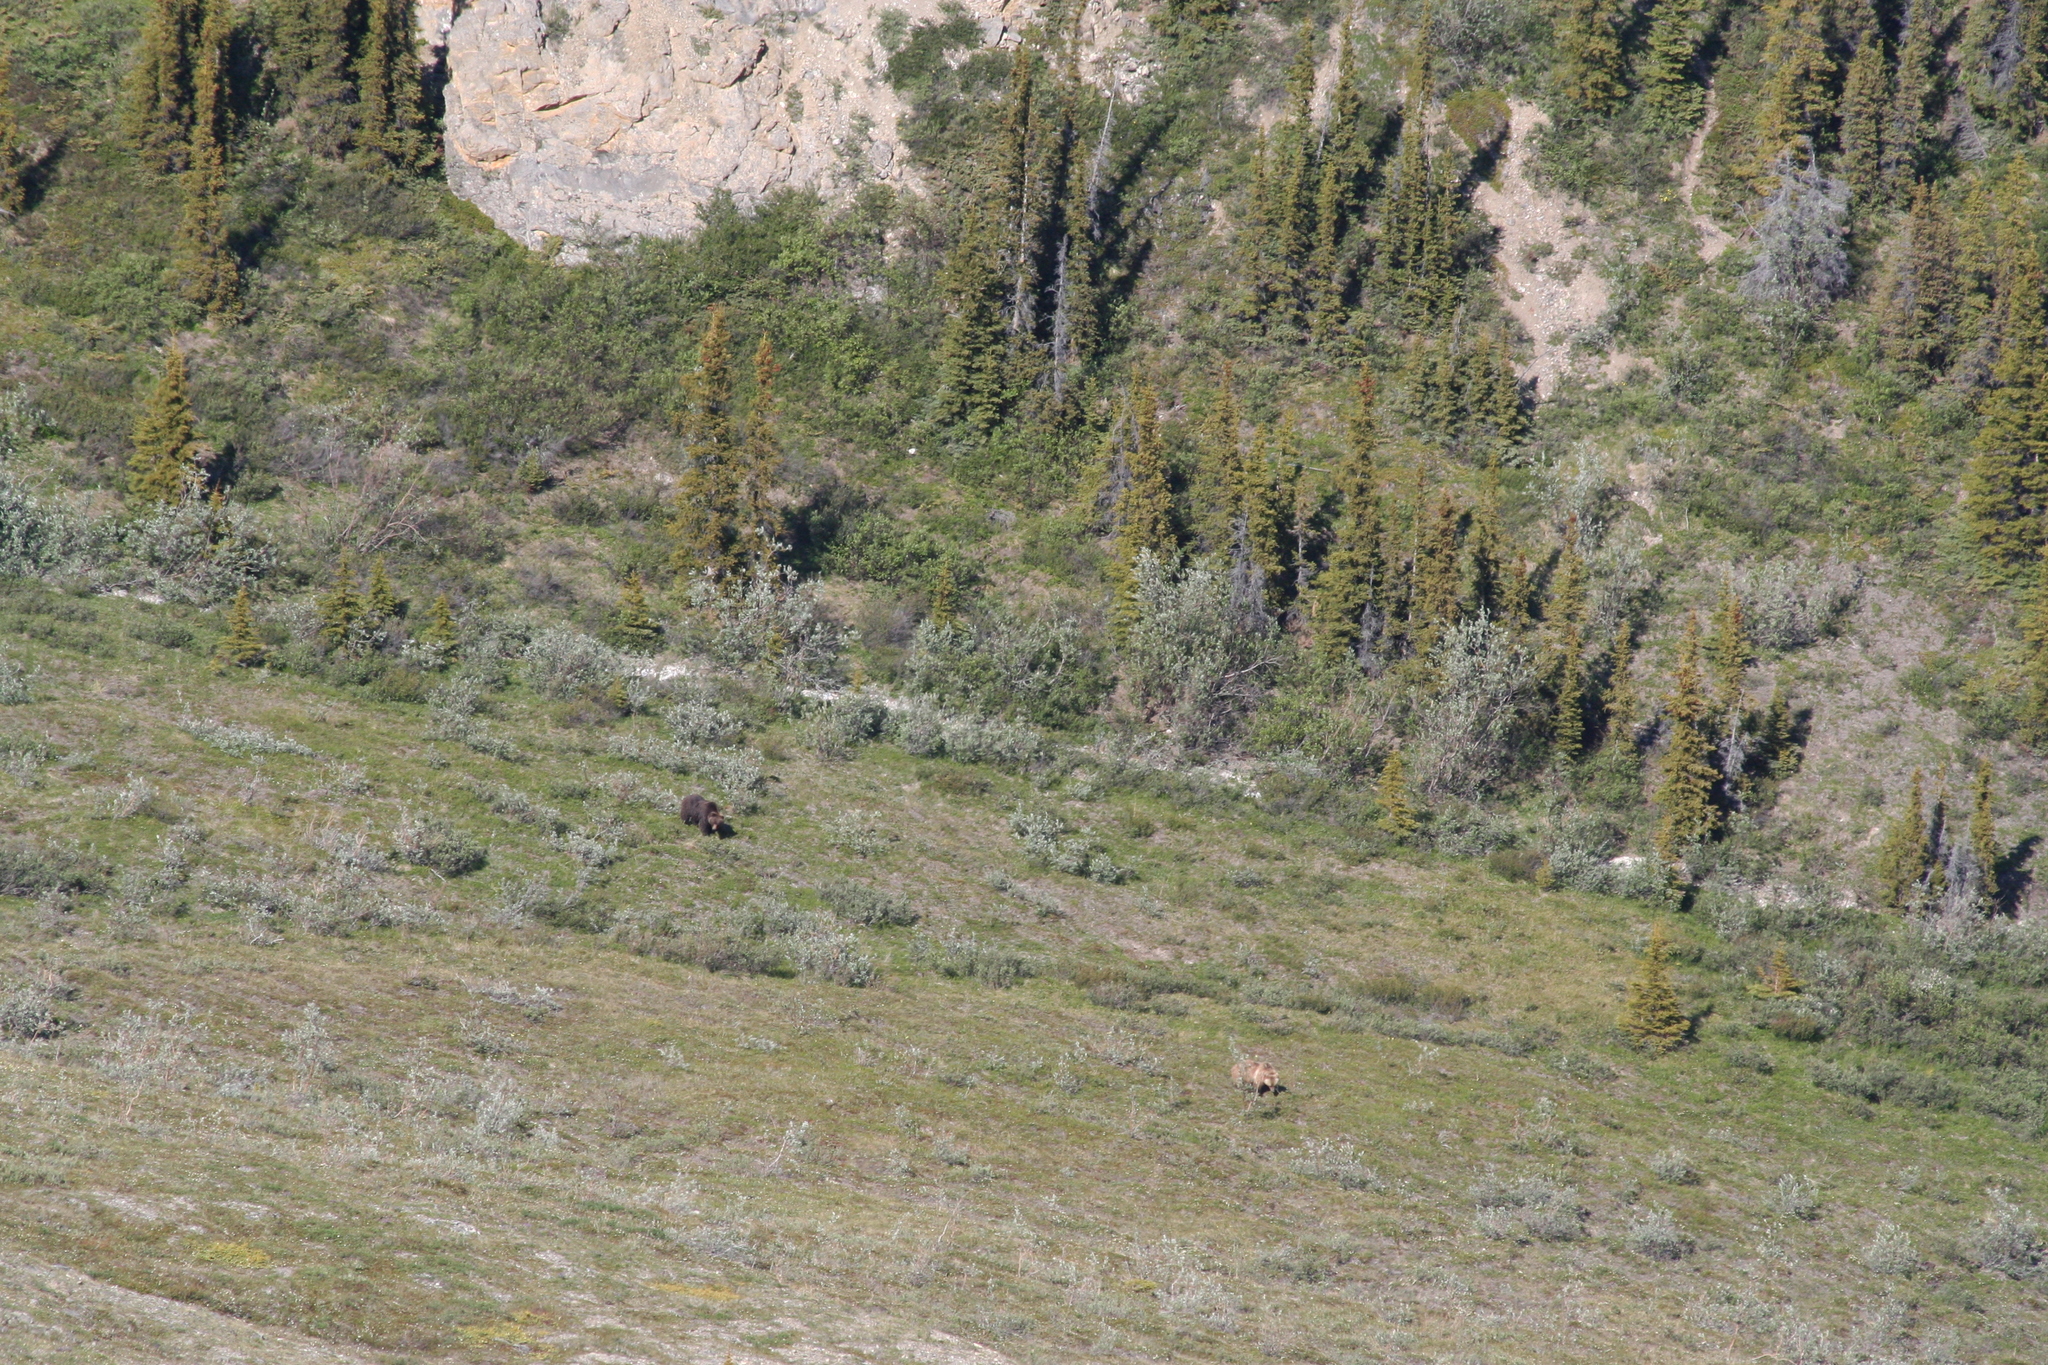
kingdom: Animalia
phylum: Chordata
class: Mammalia
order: Carnivora
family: Ursidae
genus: Ursus
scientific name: Ursus arctos
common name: Brown bear
